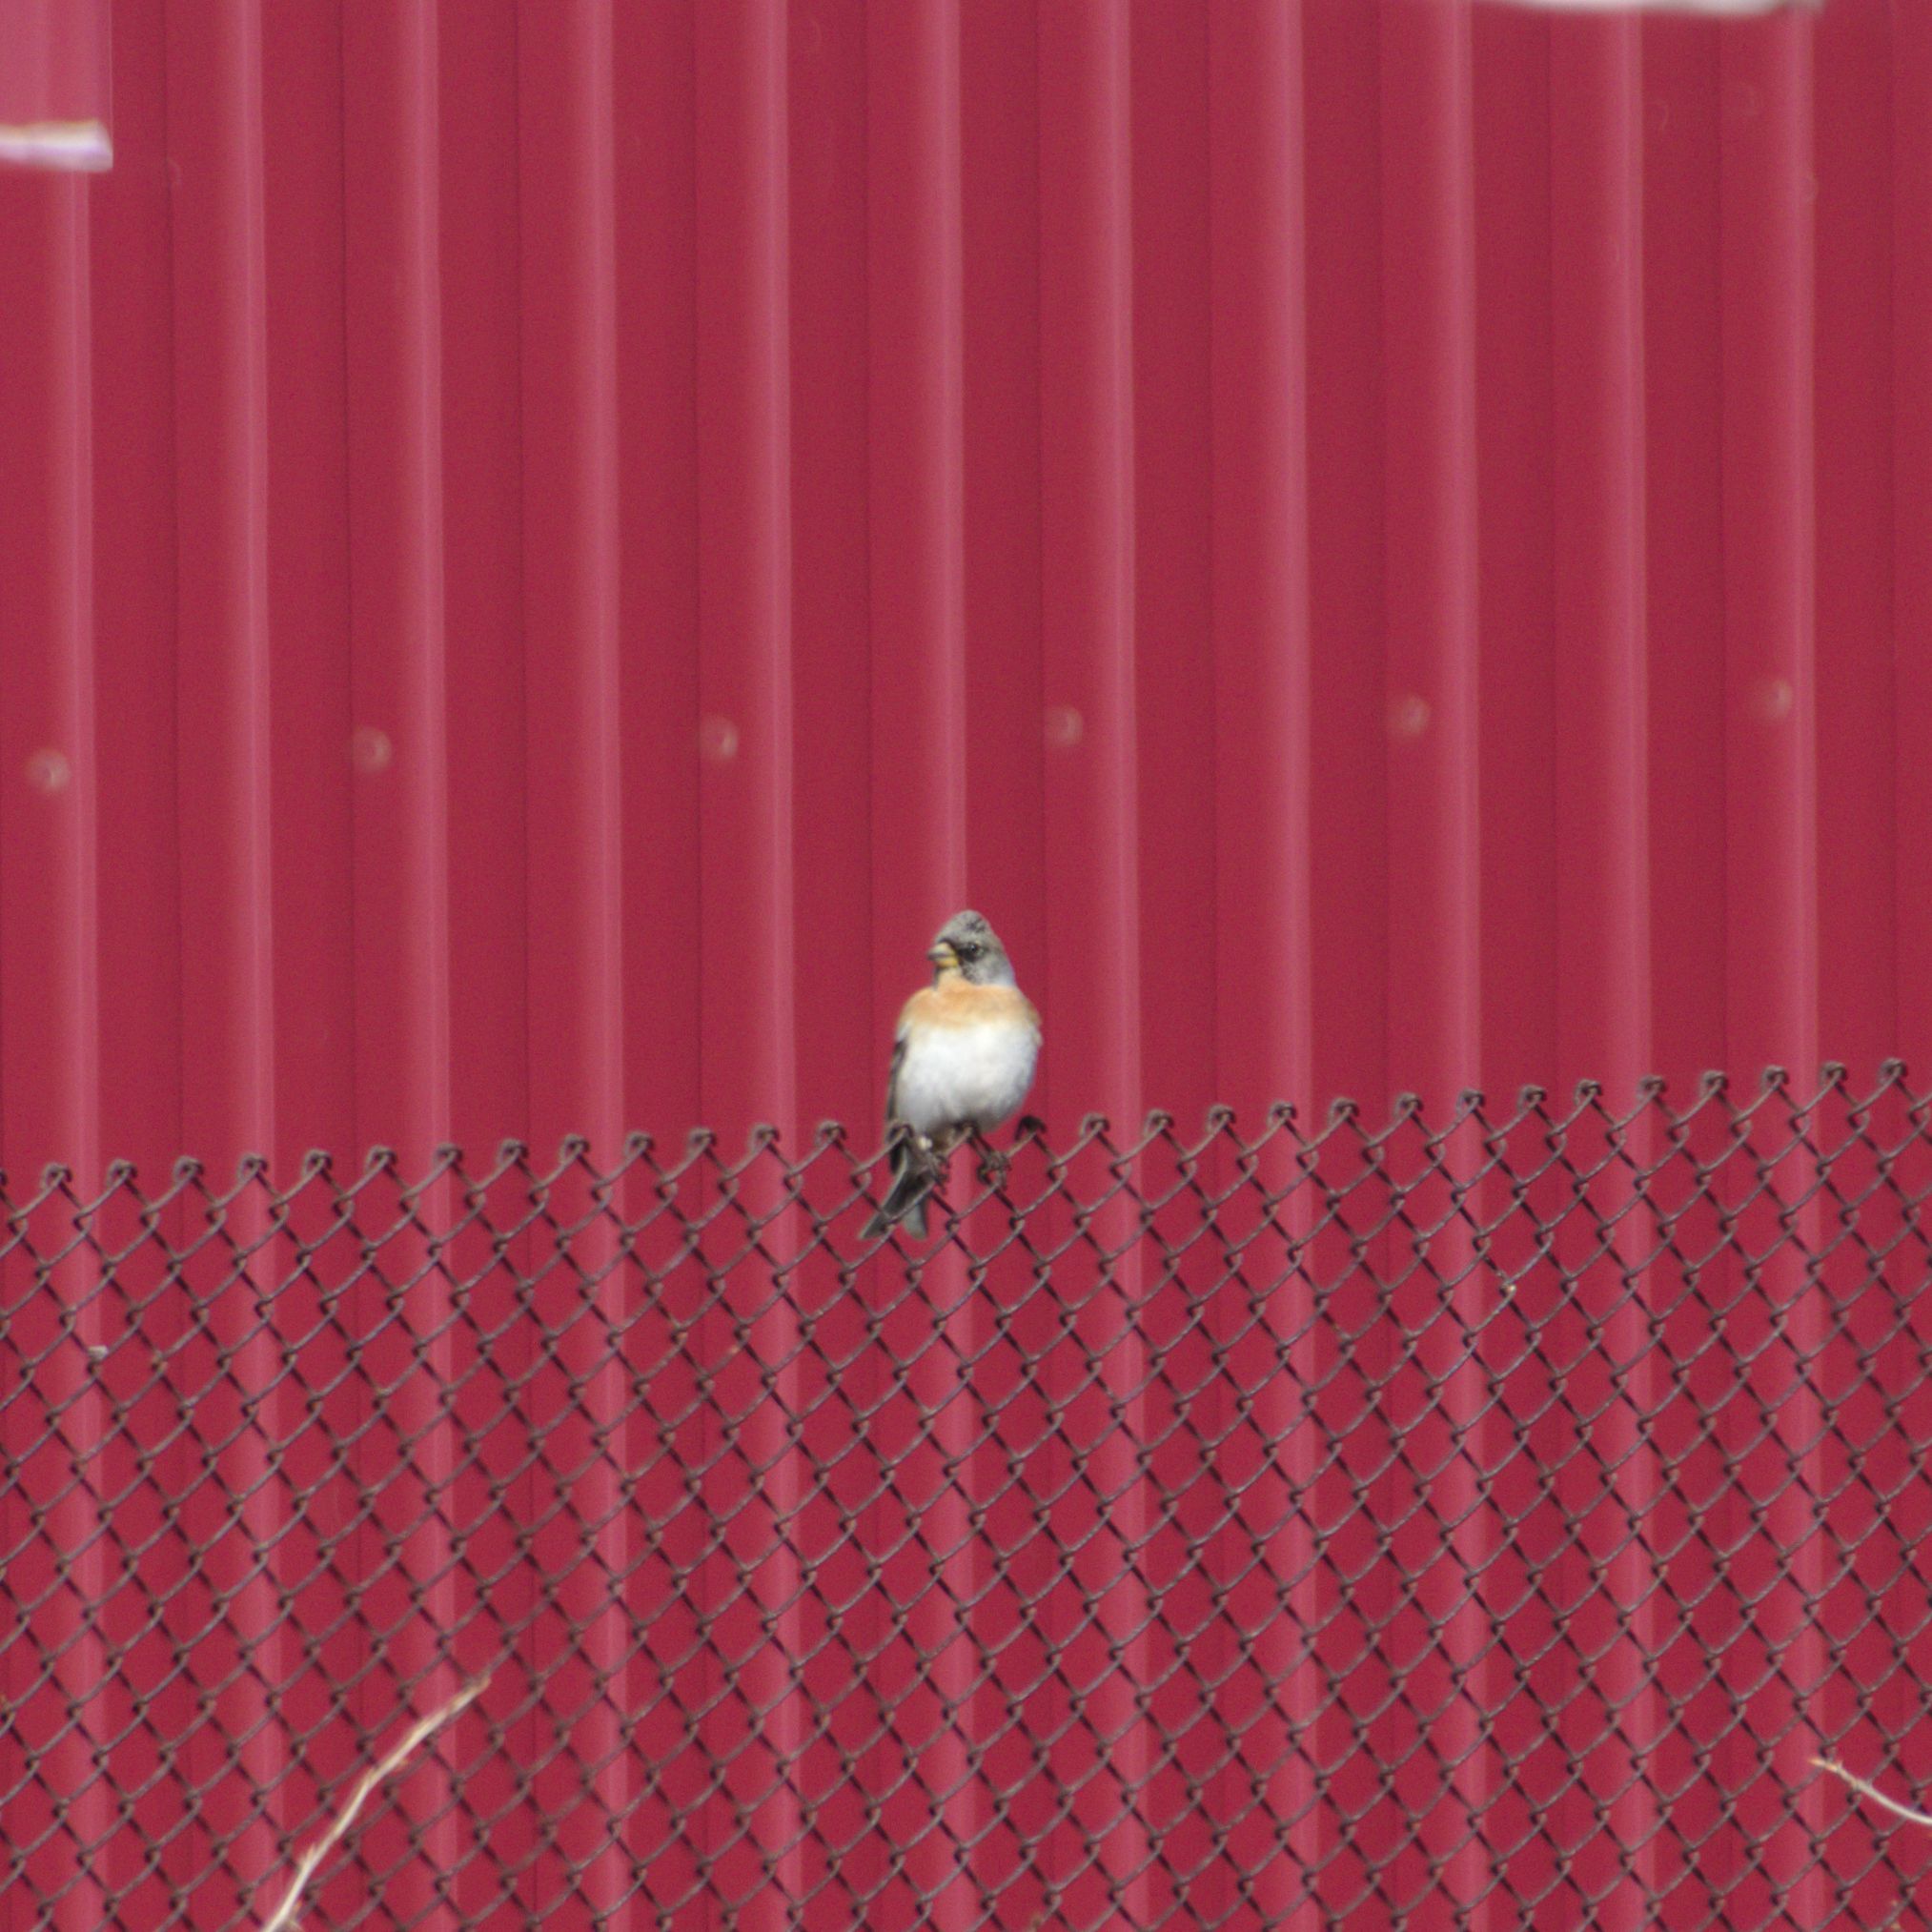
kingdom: Animalia
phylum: Chordata
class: Aves
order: Passeriformes
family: Fringillidae
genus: Fringilla
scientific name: Fringilla montifringilla
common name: Brambling
